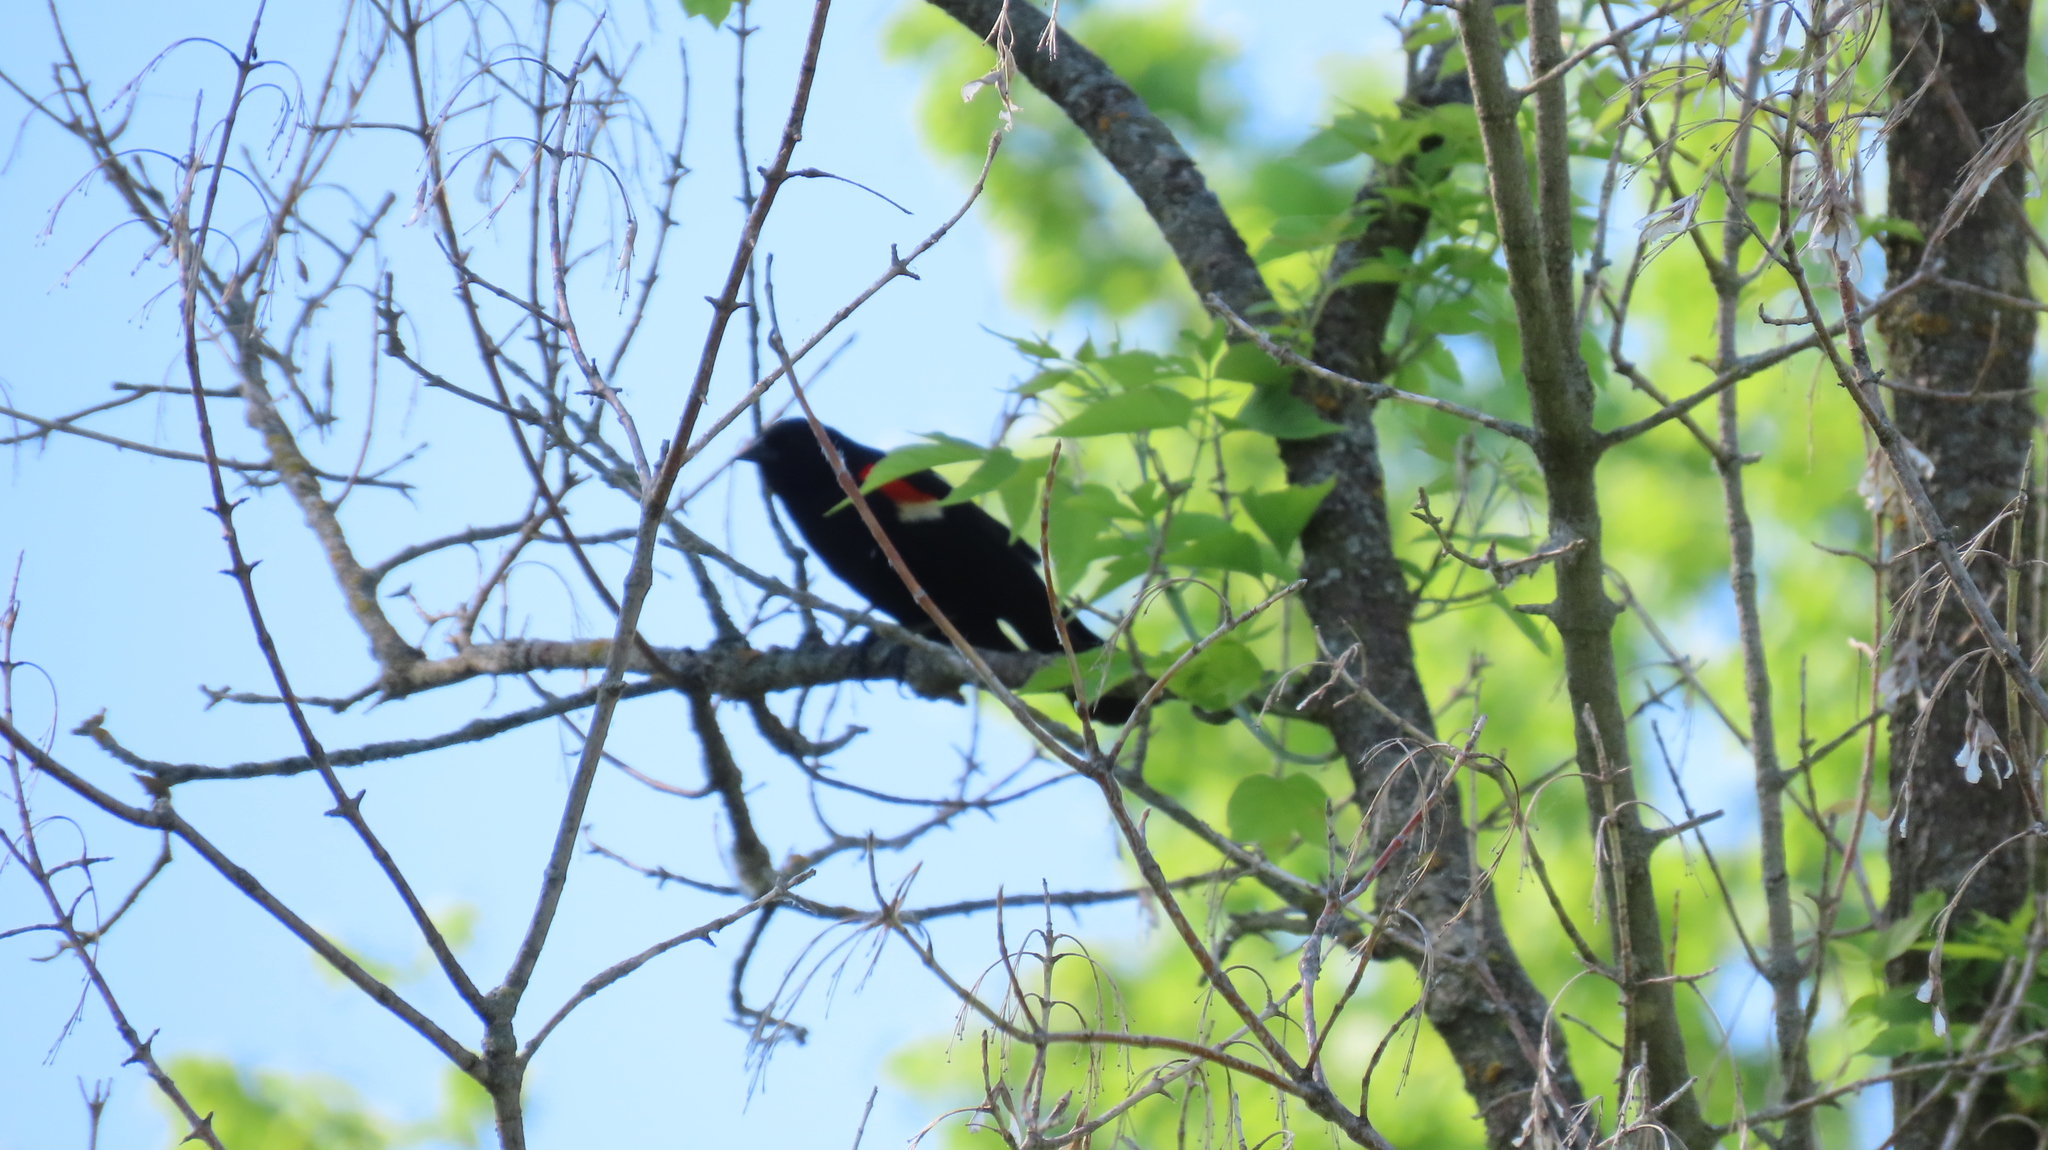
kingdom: Animalia
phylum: Chordata
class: Aves
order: Passeriformes
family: Icteridae
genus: Agelaius
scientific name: Agelaius phoeniceus
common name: Red-winged blackbird
